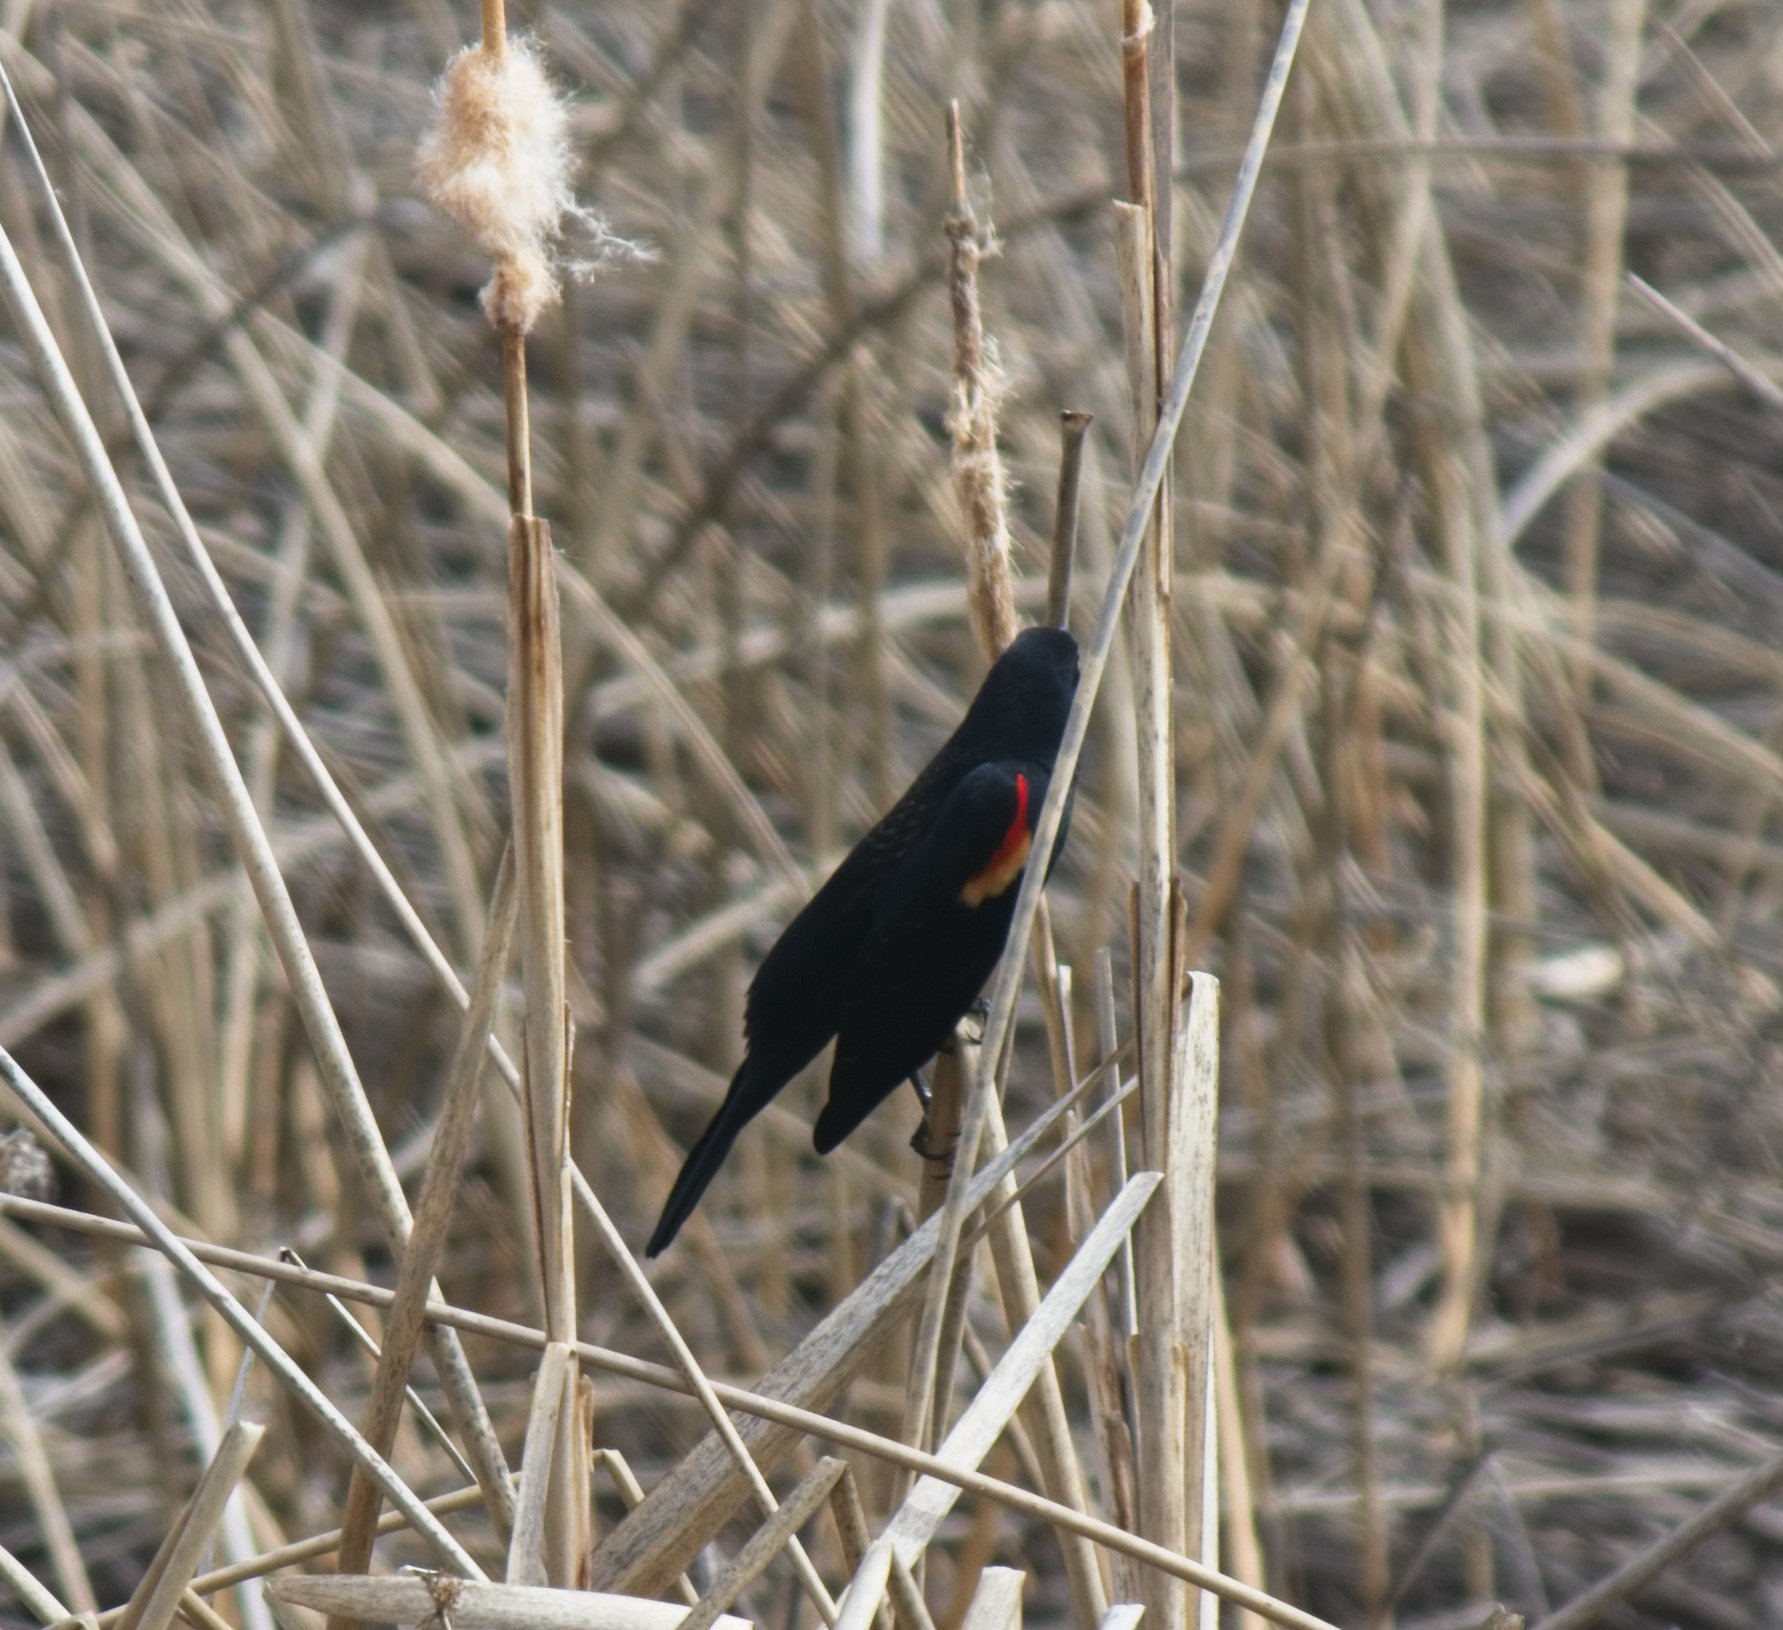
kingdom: Animalia
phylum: Chordata
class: Aves
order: Passeriformes
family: Icteridae
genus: Agelaius
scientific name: Agelaius phoeniceus
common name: Red-winged blackbird
